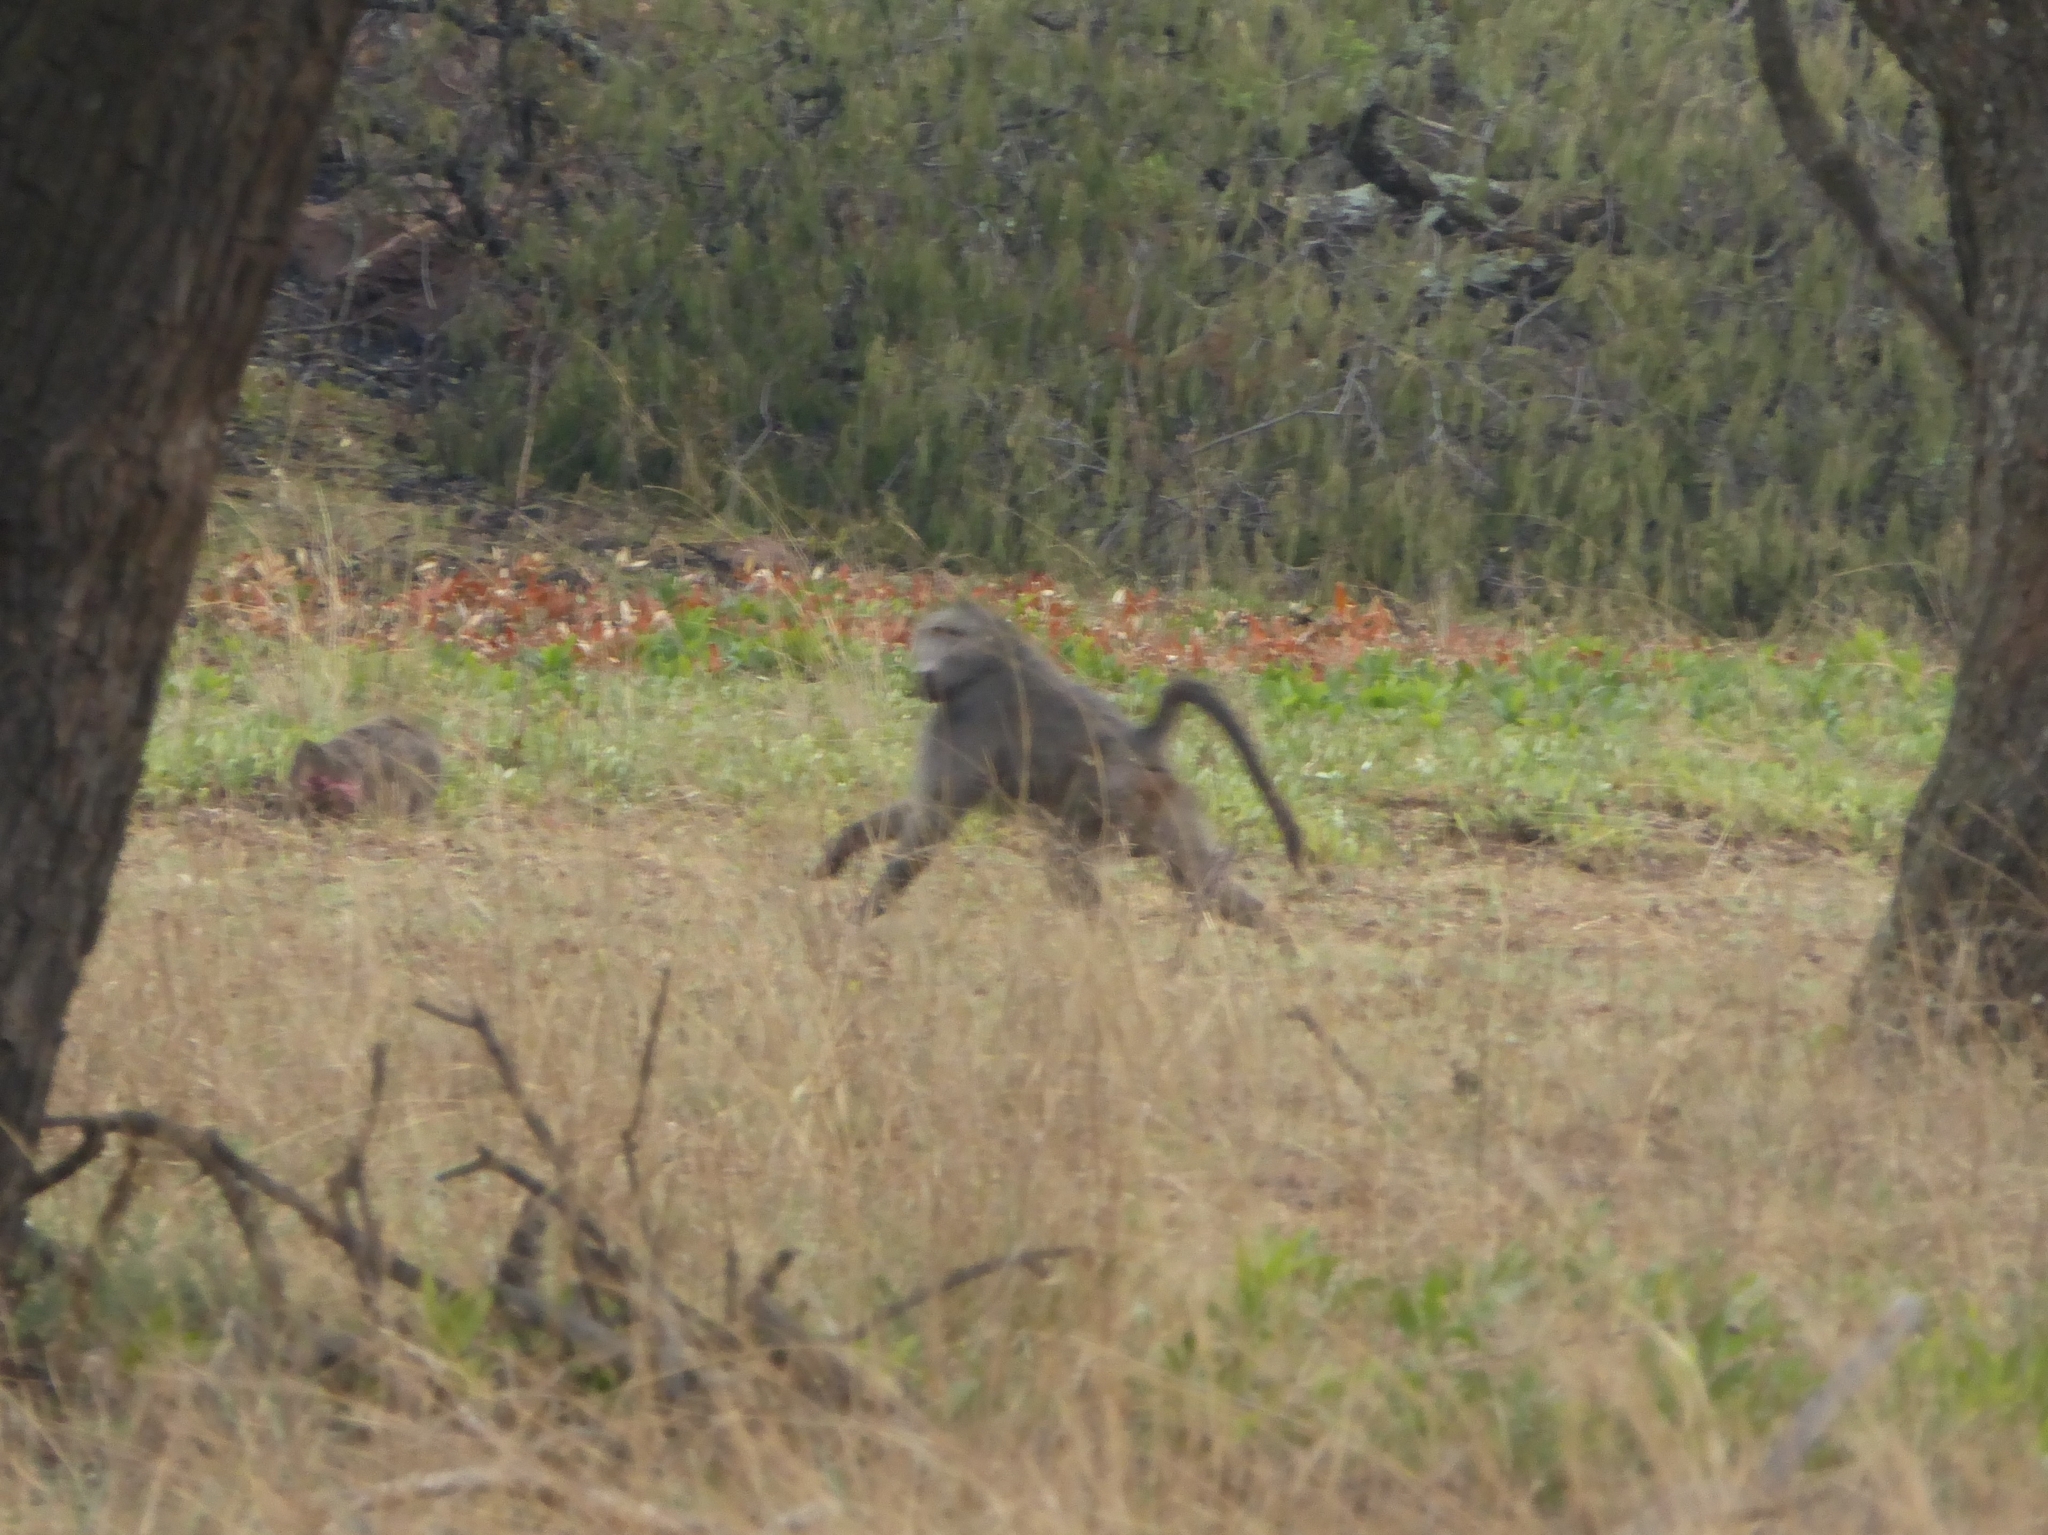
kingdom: Animalia
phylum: Chordata
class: Mammalia
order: Primates
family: Cercopithecidae
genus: Papio
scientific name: Papio ursinus
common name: Chacma baboon
